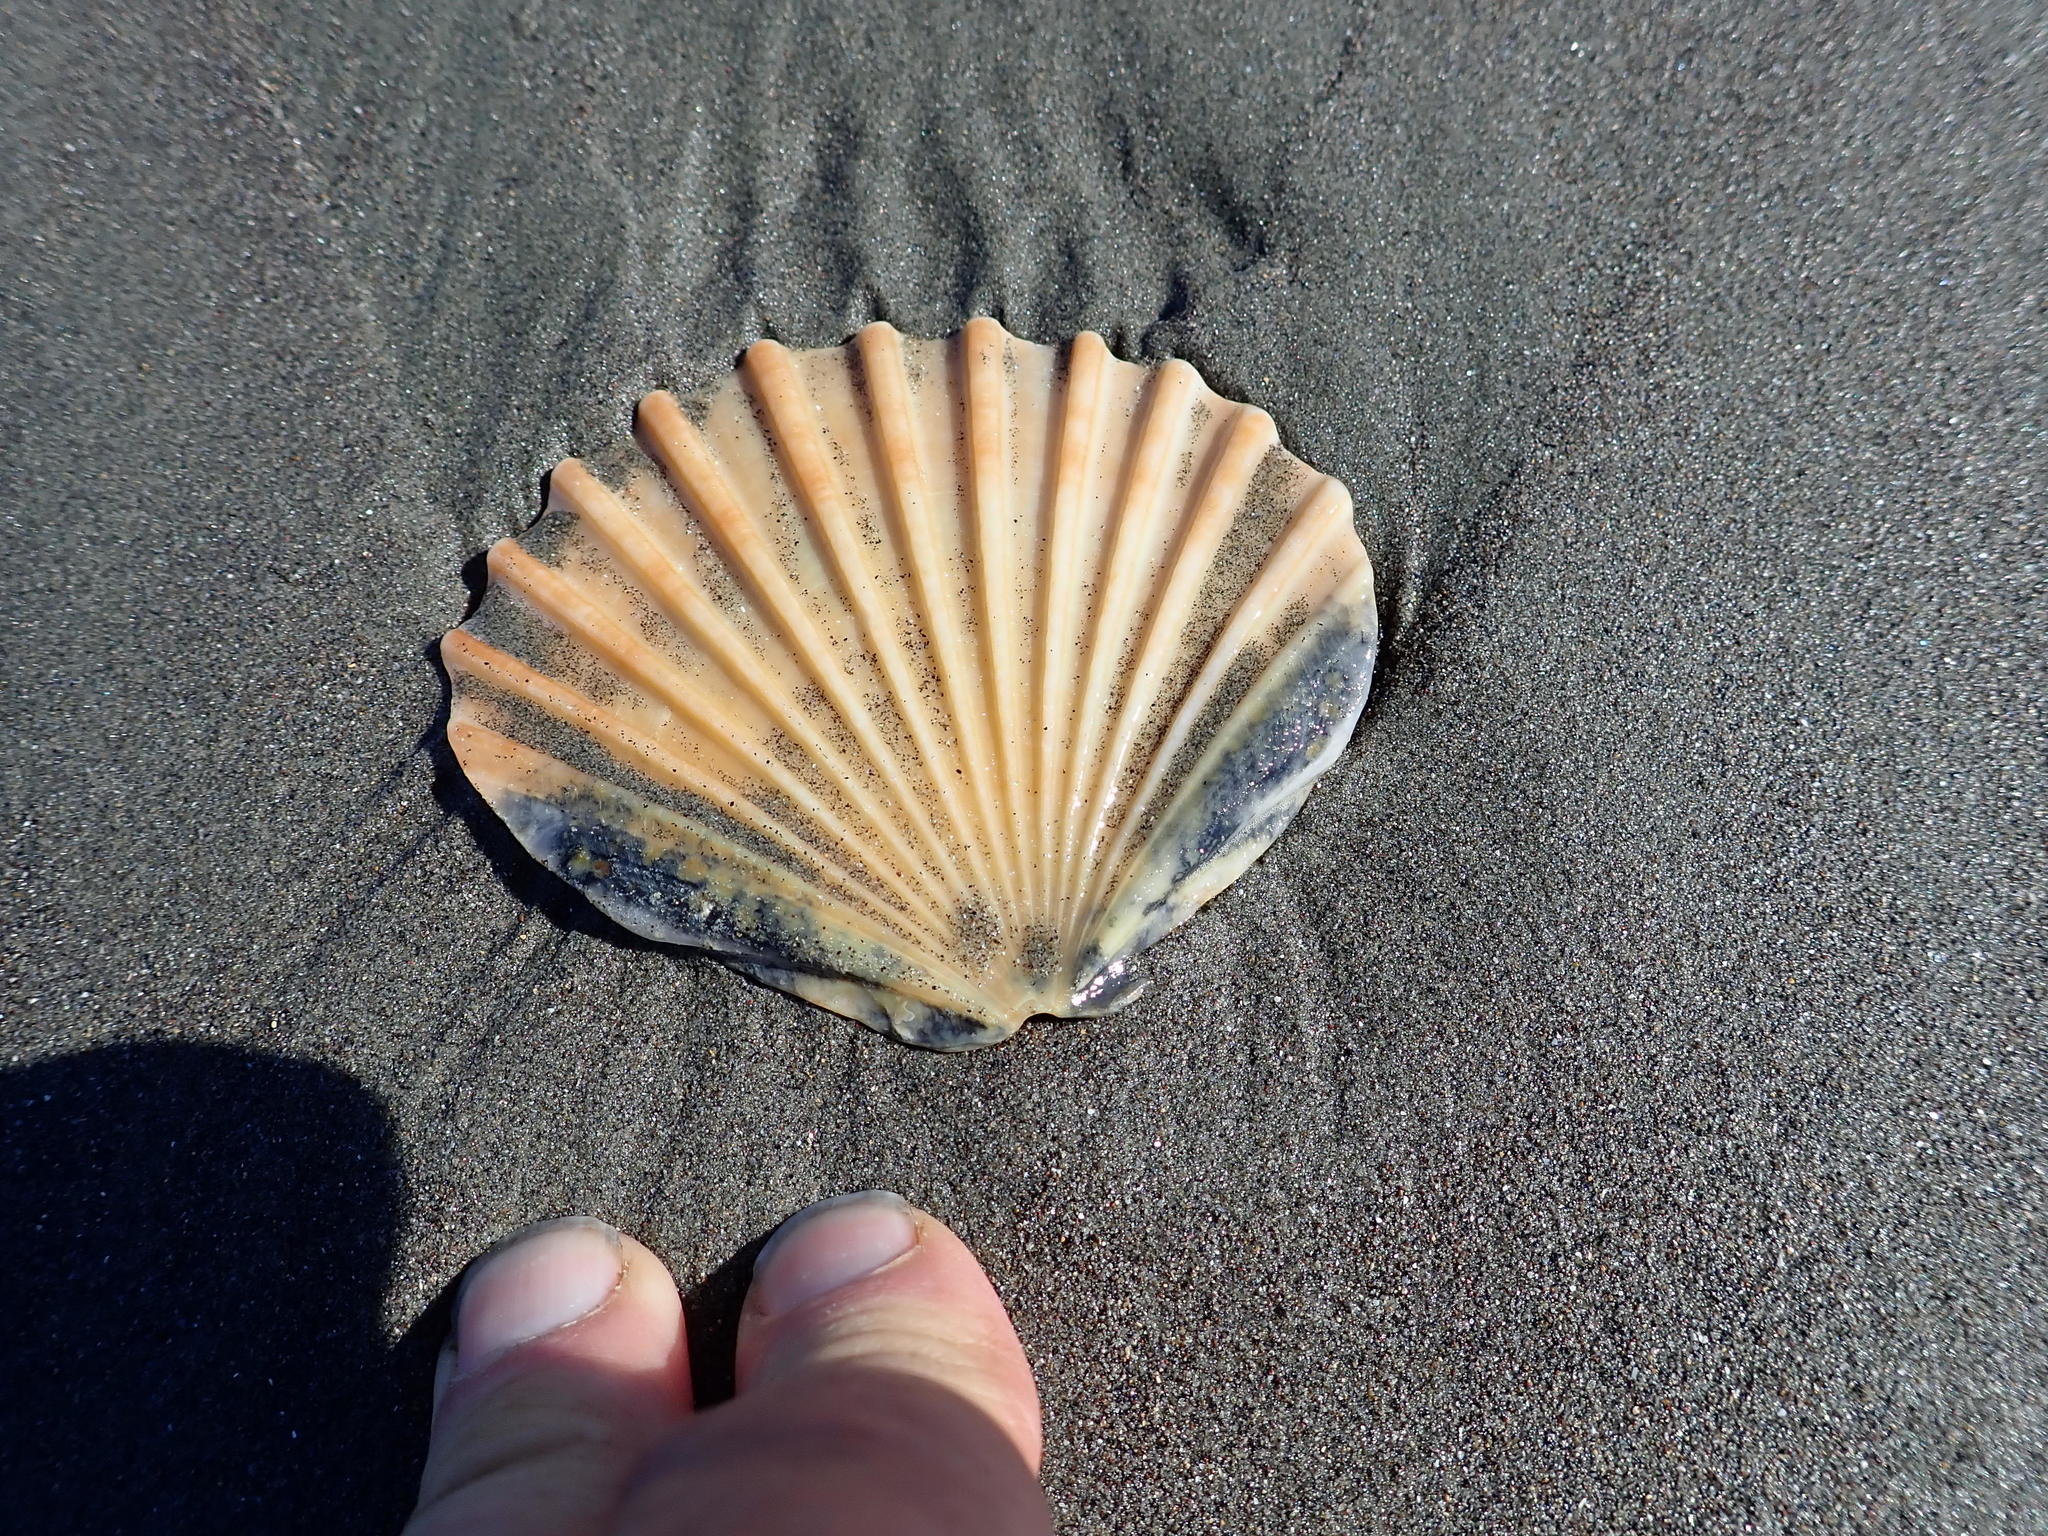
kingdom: Animalia
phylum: Mollusca
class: Bivalvia
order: Pectinida
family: Pectinidae
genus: Pecten
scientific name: Pecten novaezelandiae
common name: New zealand scallop
